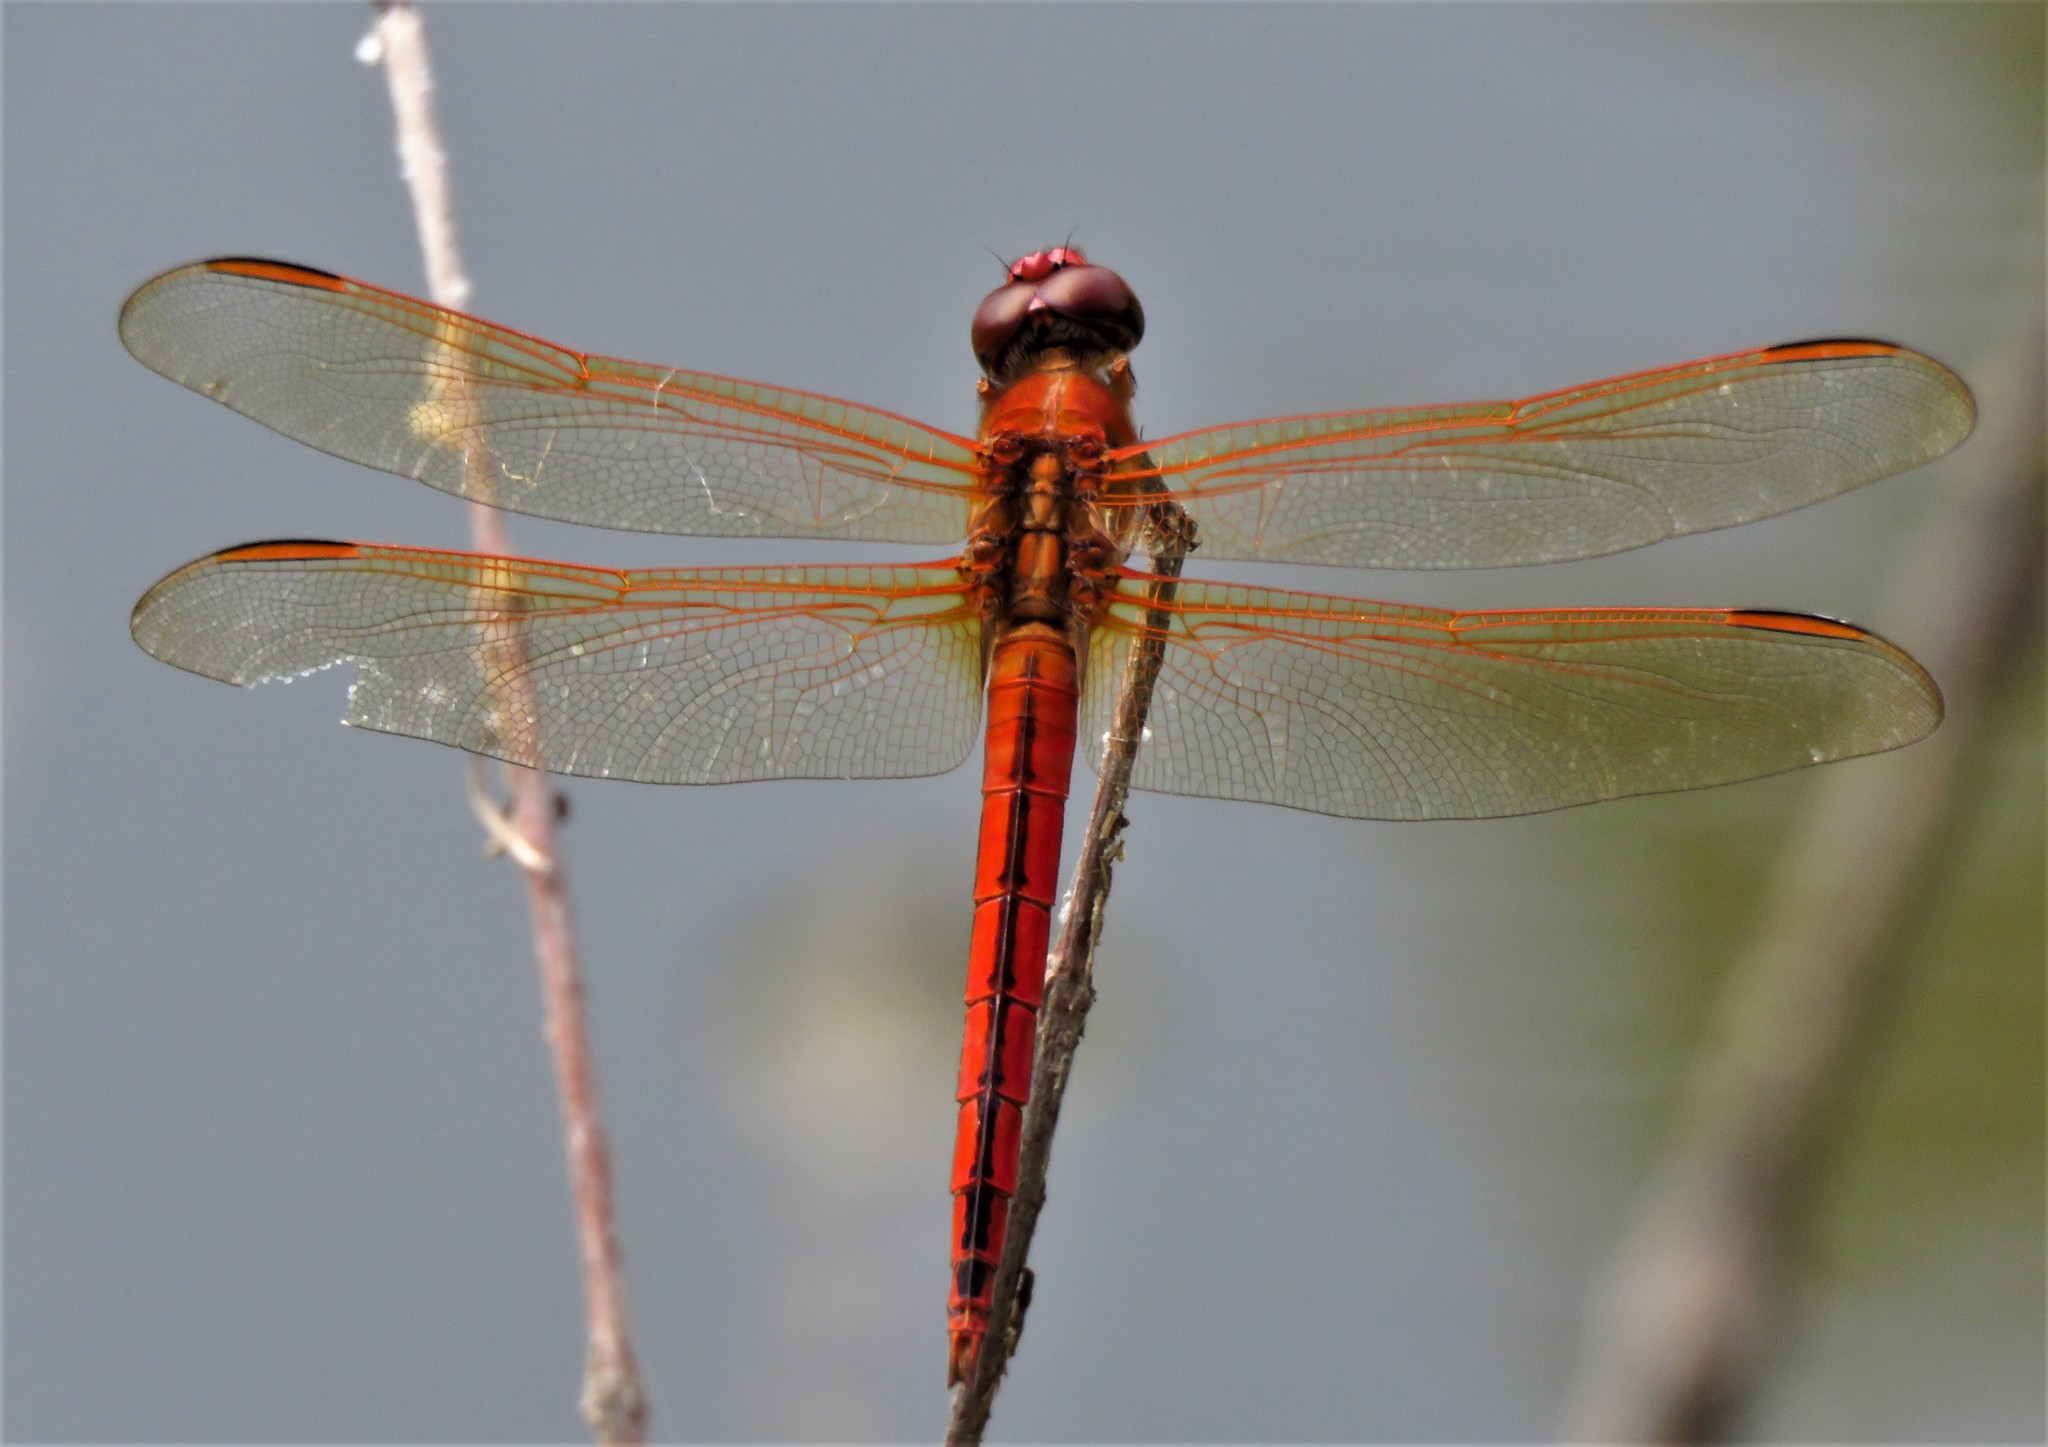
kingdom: Animalia
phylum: Arthropoda
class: Insecta
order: Odonata
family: Libellulidae
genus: Libellula
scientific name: Libellula needhami
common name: Needham's skimmer
